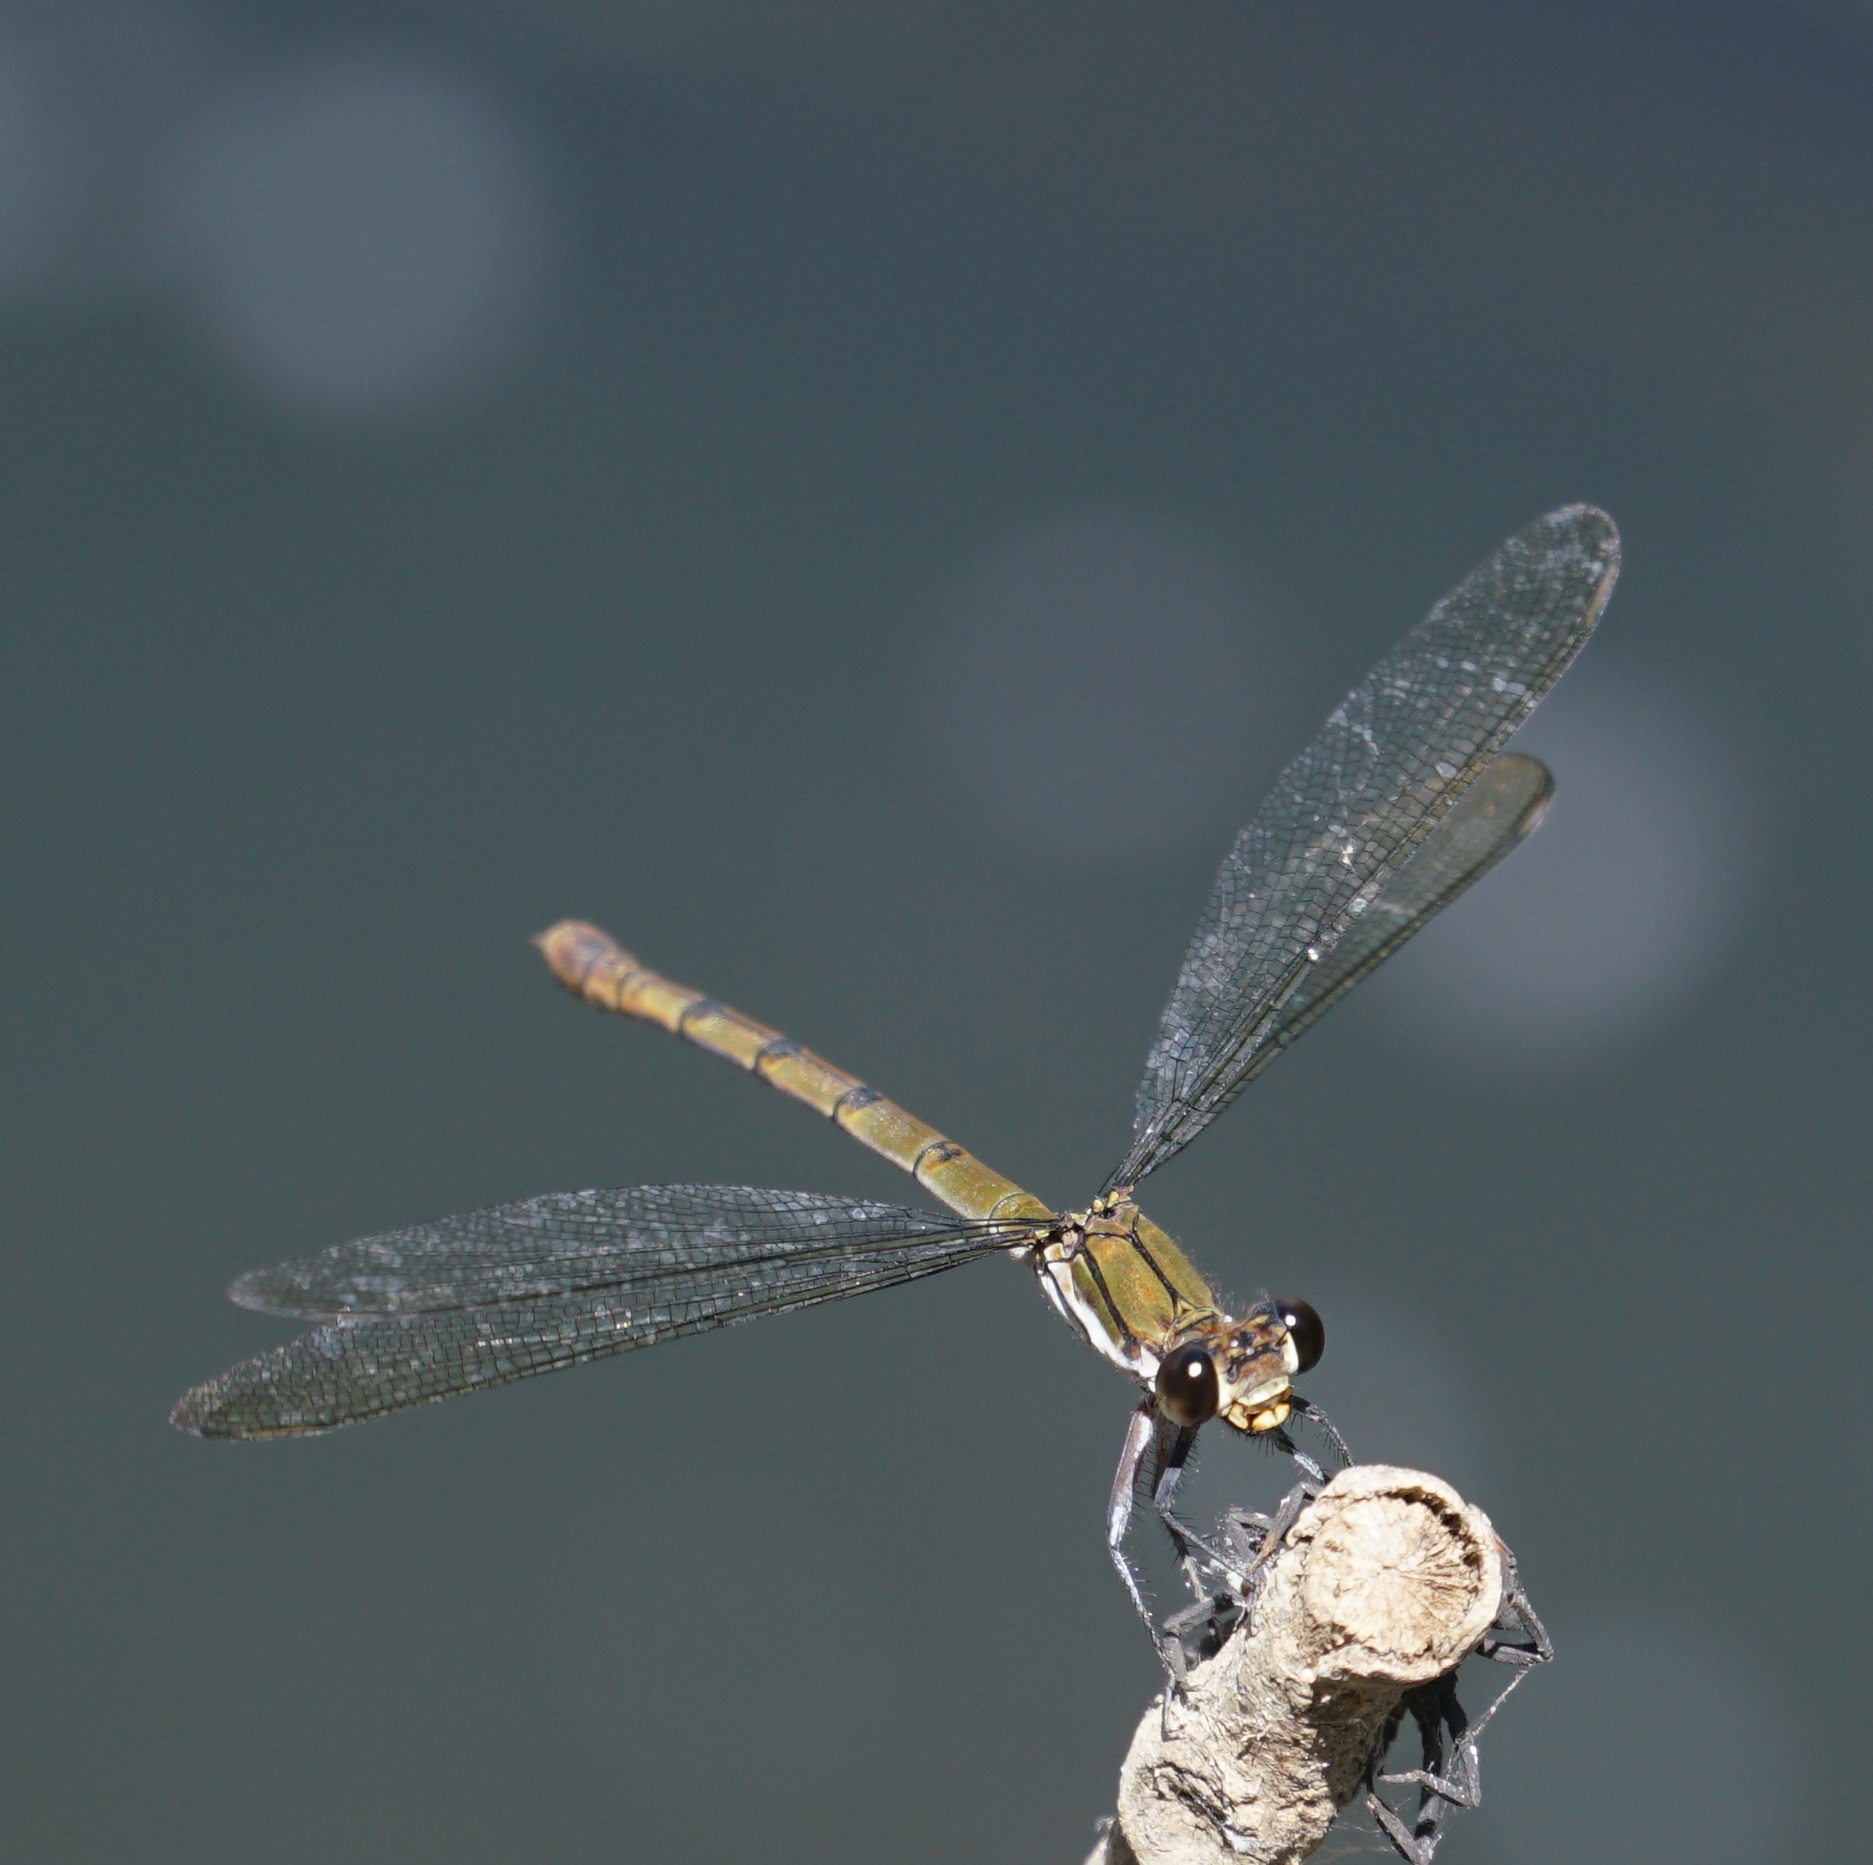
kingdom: Animalia
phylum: Arthropoda
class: Insecta
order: Odonata
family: Lestoideidae
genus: Diphlebia
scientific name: Diphlebia euphoeoides
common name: Tropical rockmaster
